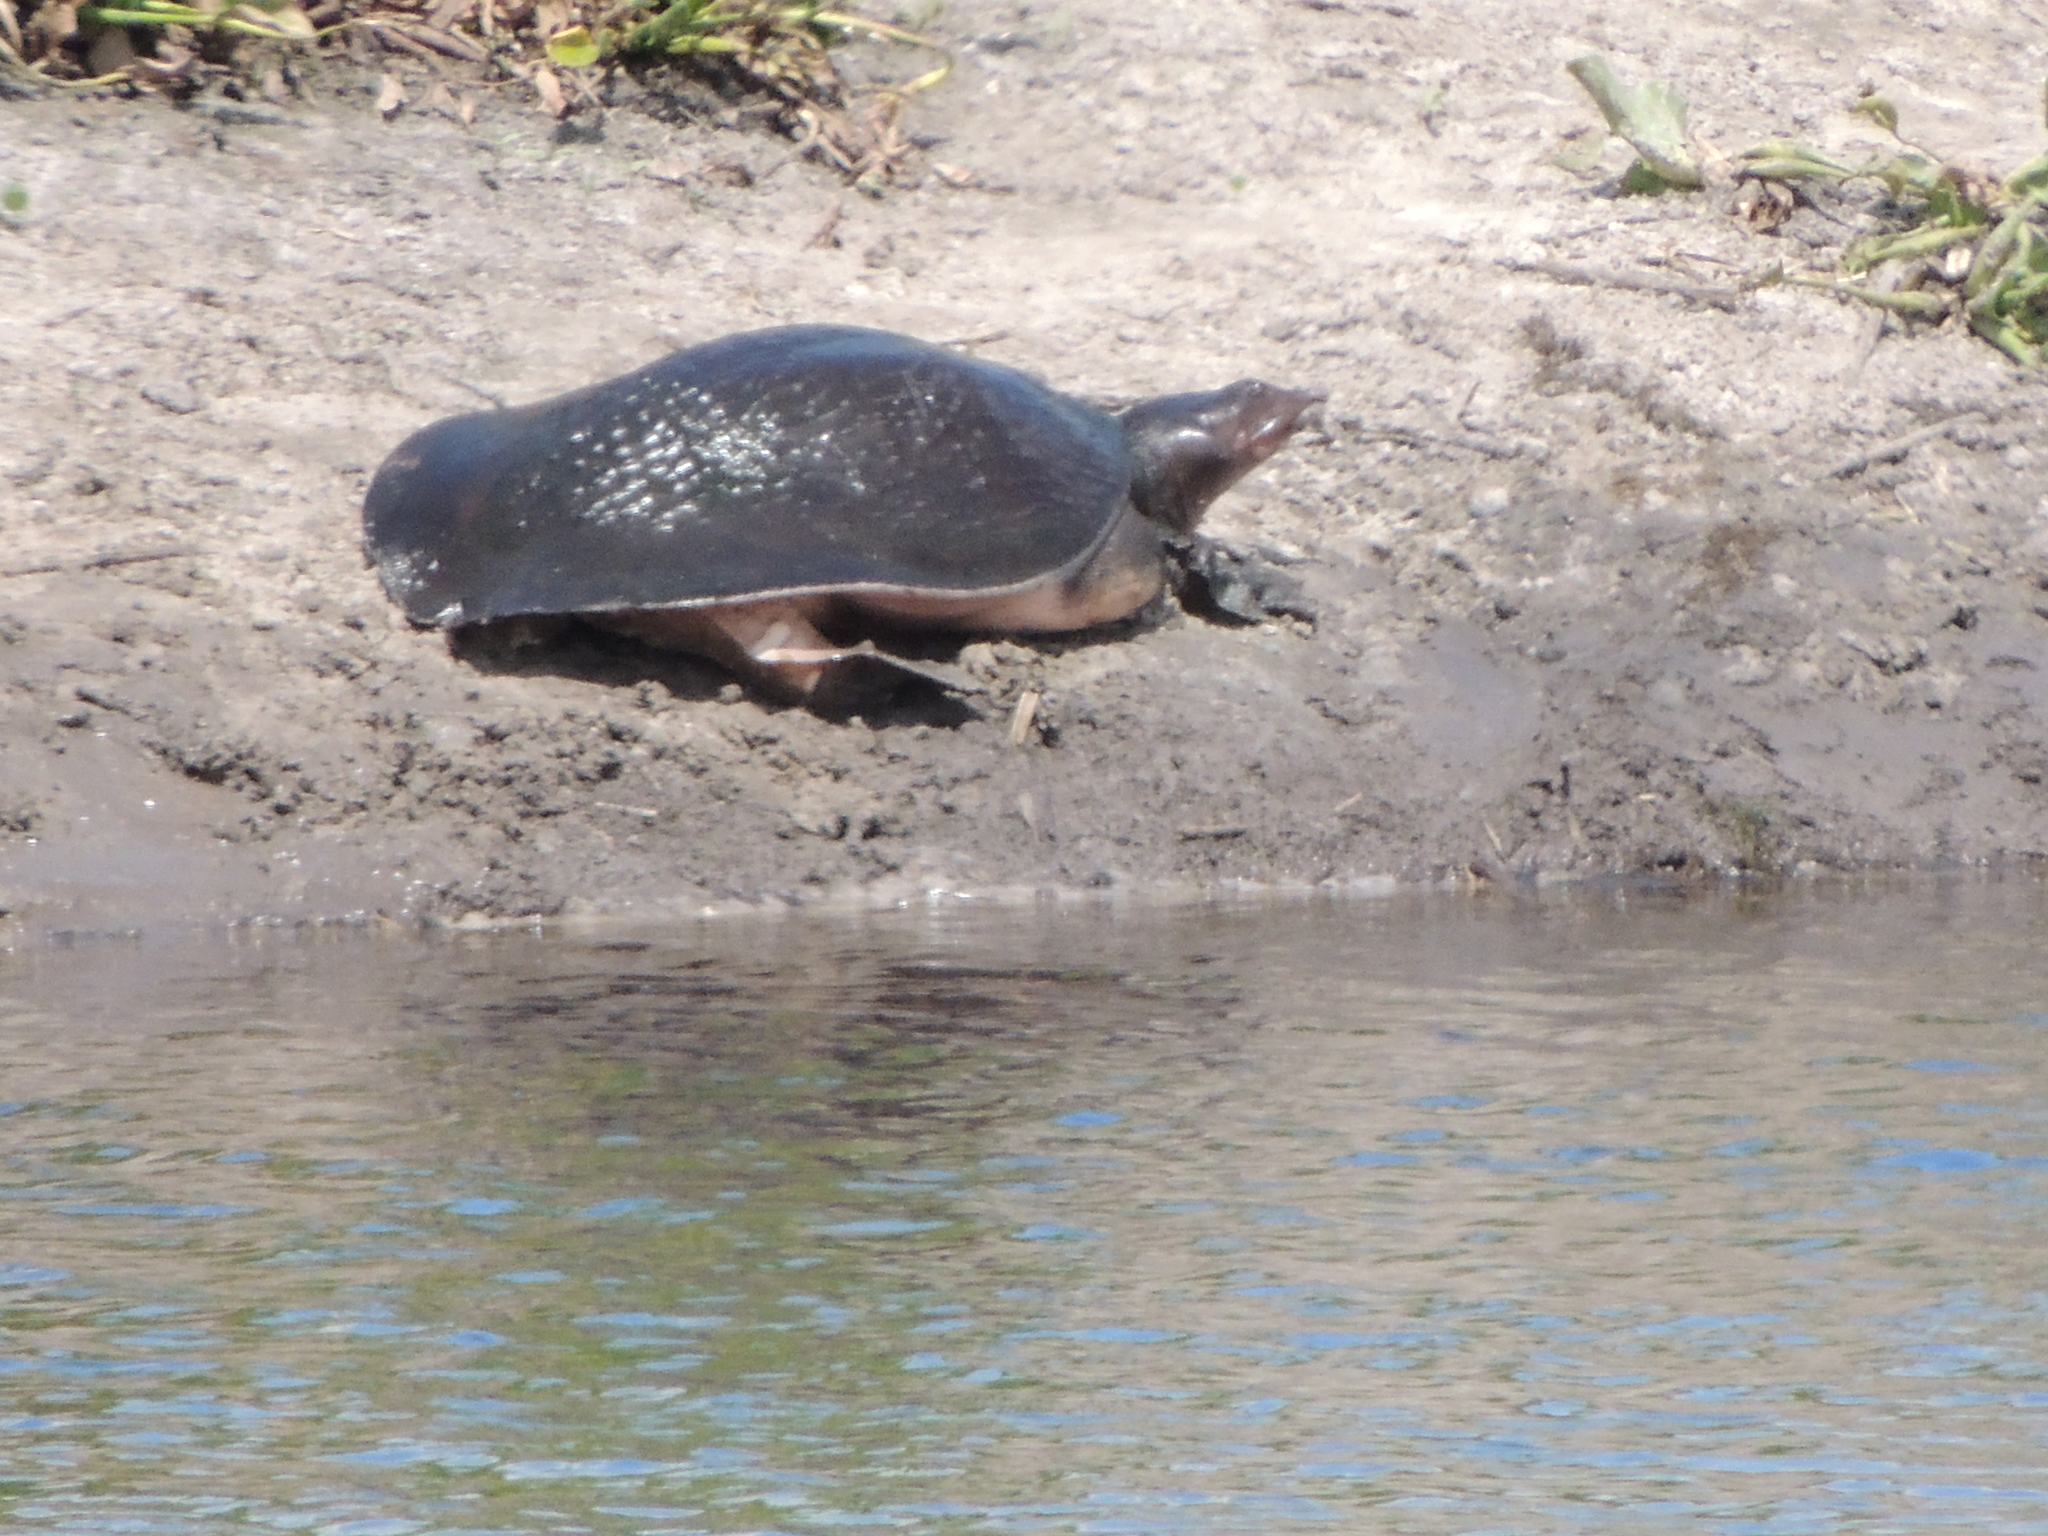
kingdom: Animalia
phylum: Chordata
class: Testudines
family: Trionychidae
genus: Apalone
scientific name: Apalone ferox
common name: Florida softshell turtle
